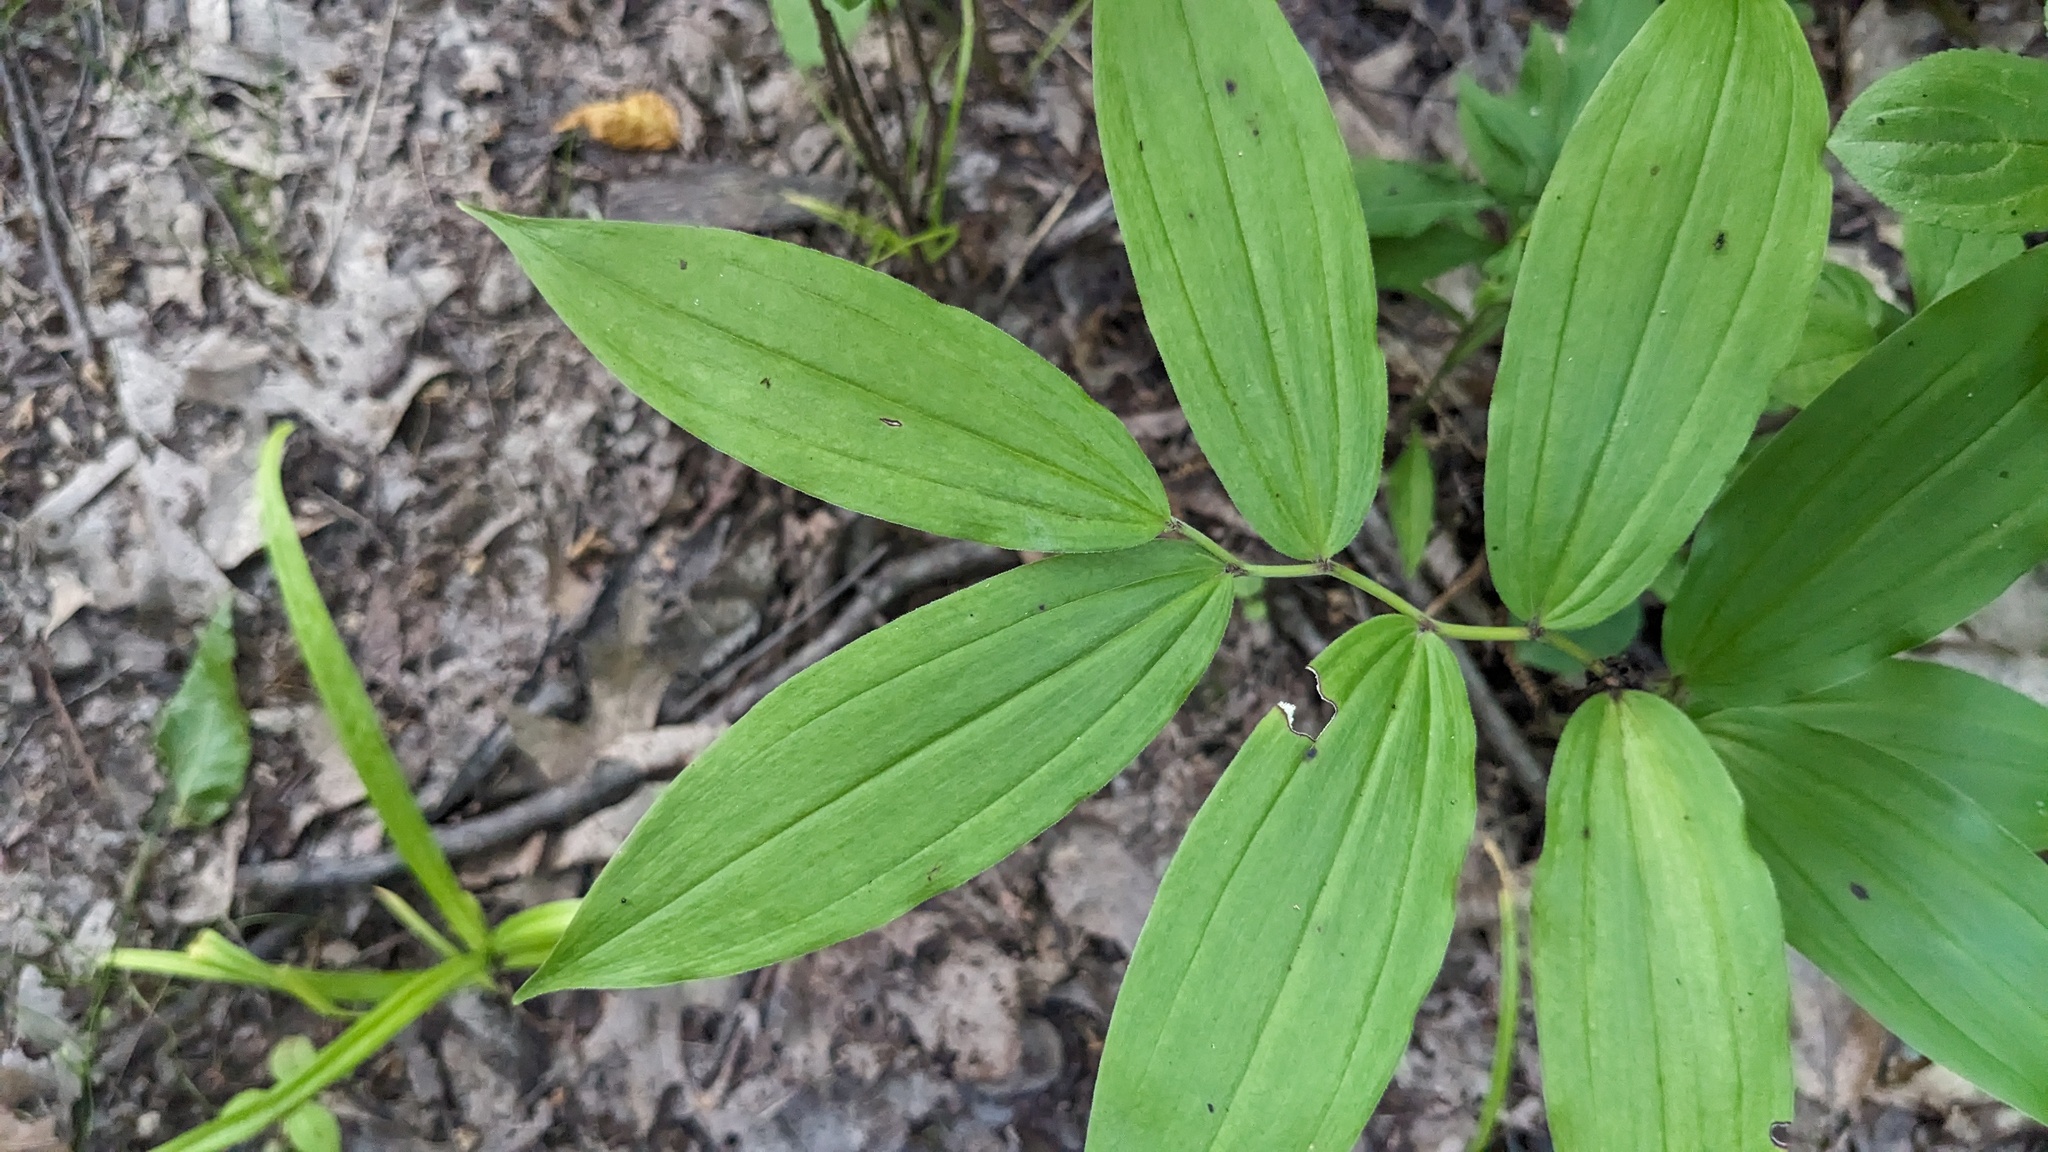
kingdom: Plantae
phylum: Tracheophyta
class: Liliopsida
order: Asparagales
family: Asparagaceae
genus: Maianthemum
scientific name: Maianthemum racemosum
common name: False spikenard
